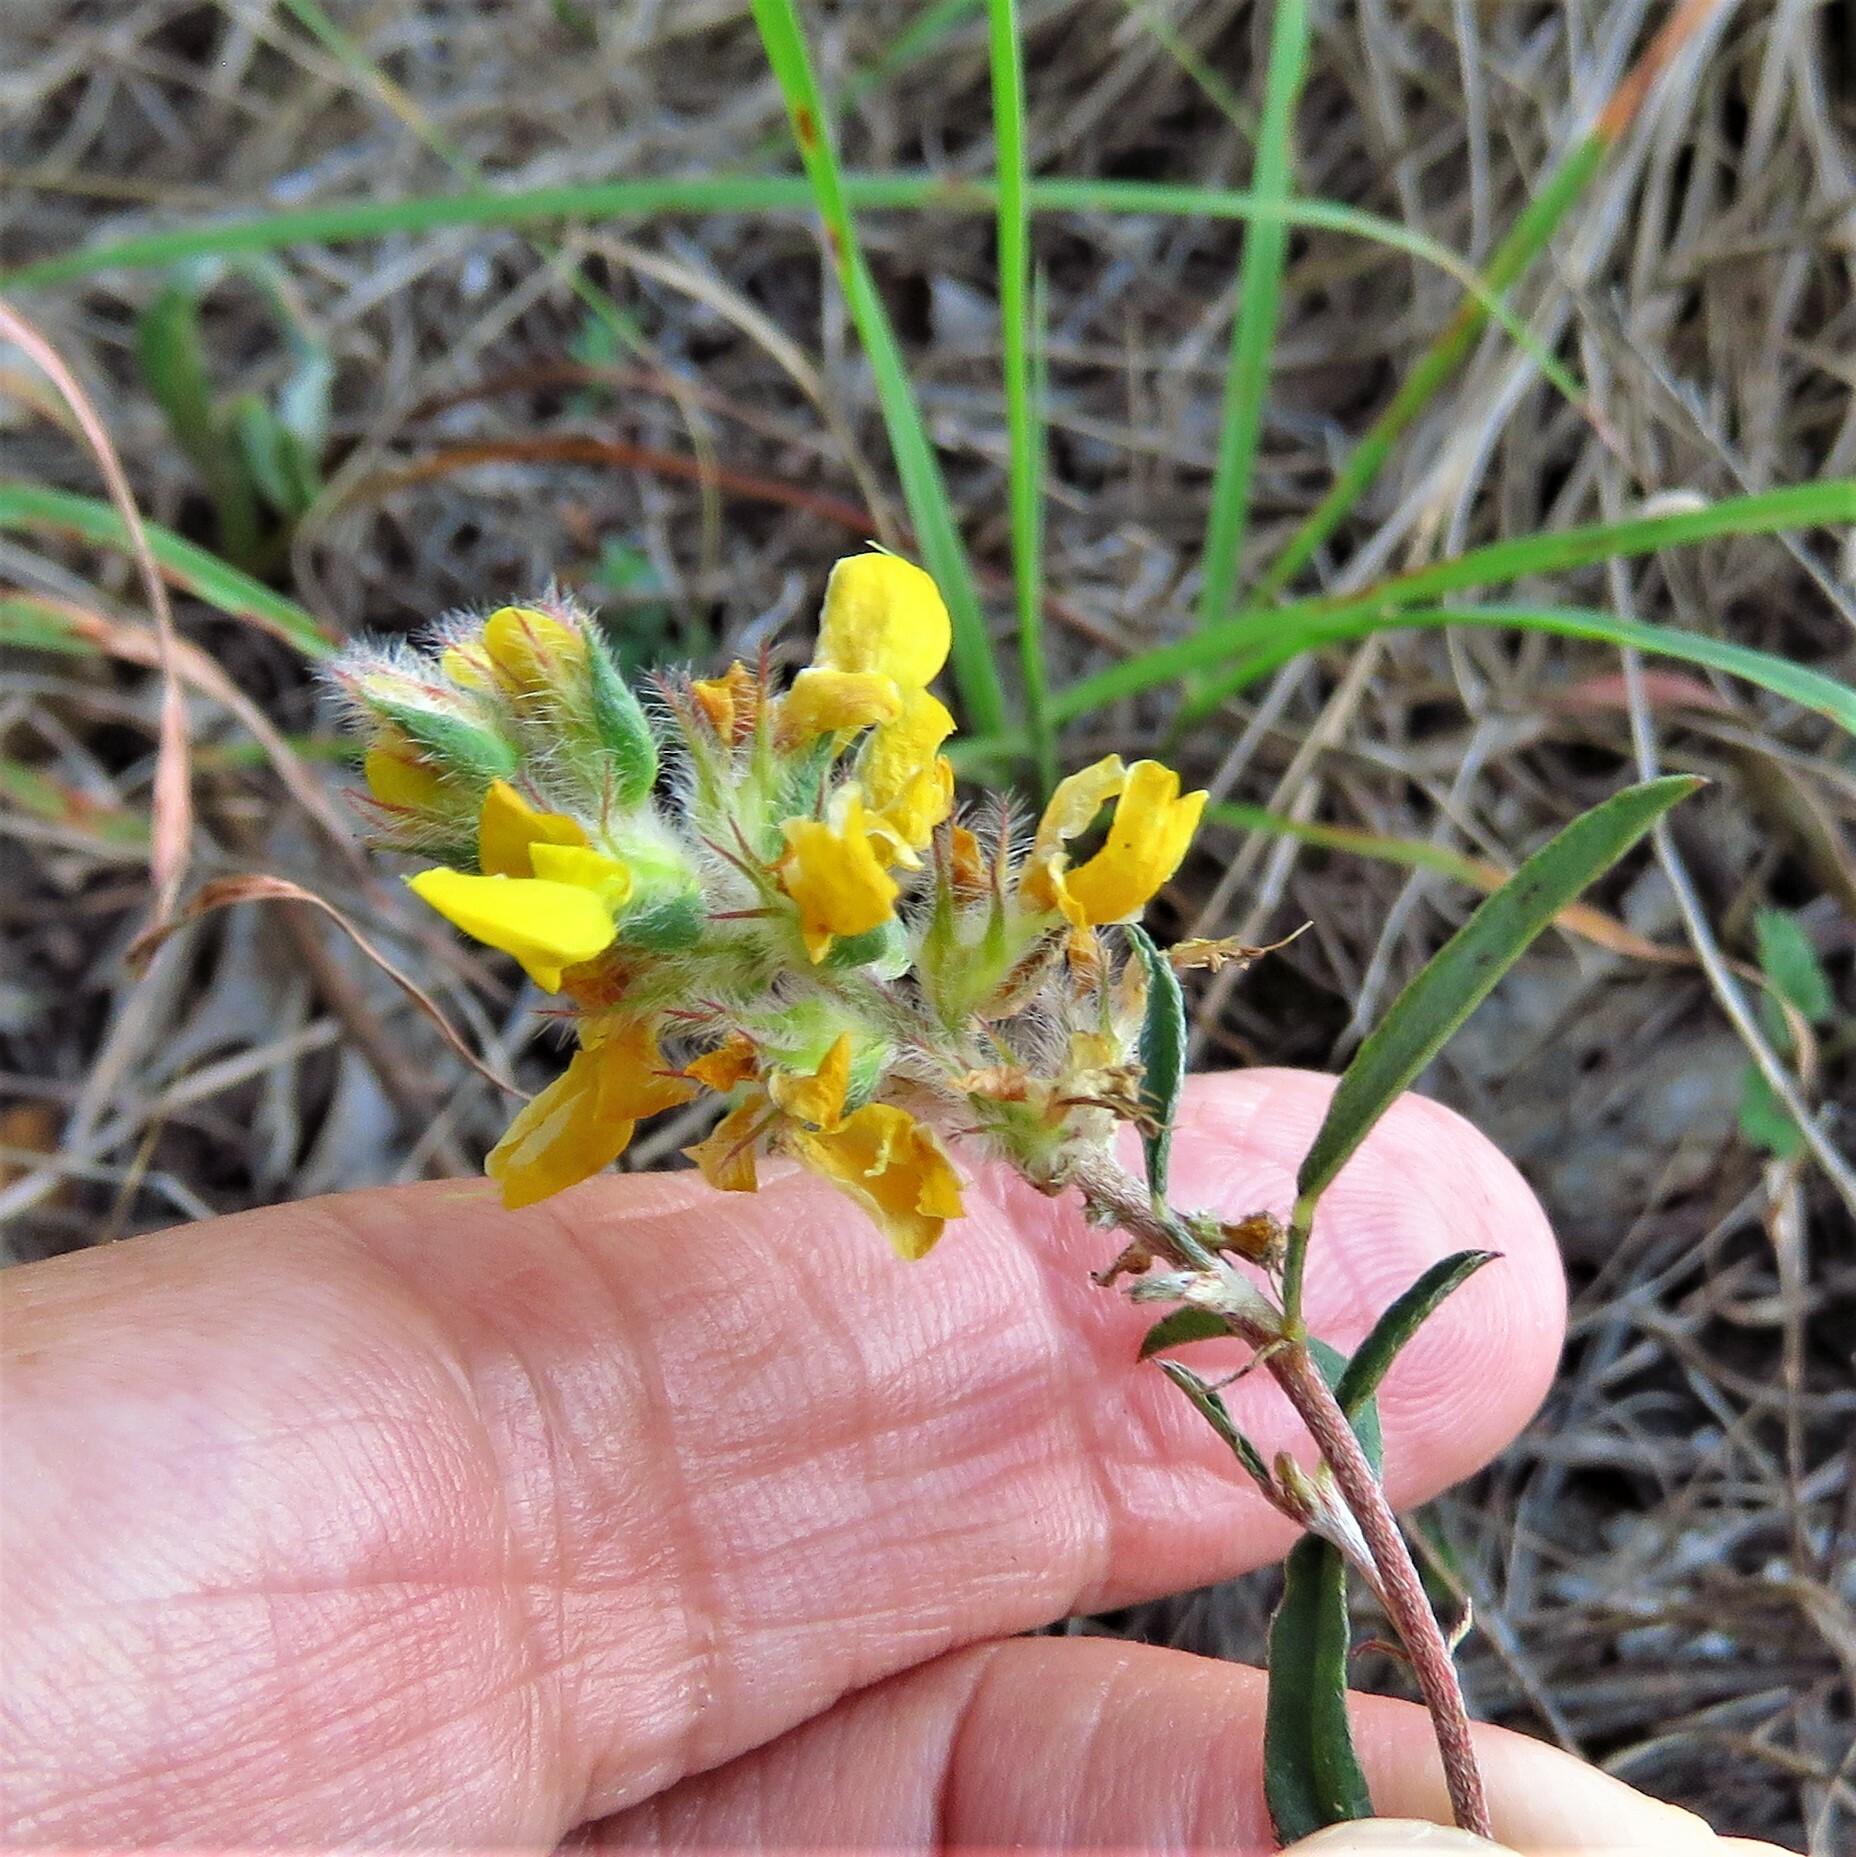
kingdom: Plantae
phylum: Tracheophyta
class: Magnoliopsida
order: Fabales
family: Fabaceae
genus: Dalea
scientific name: Dalea hallii
